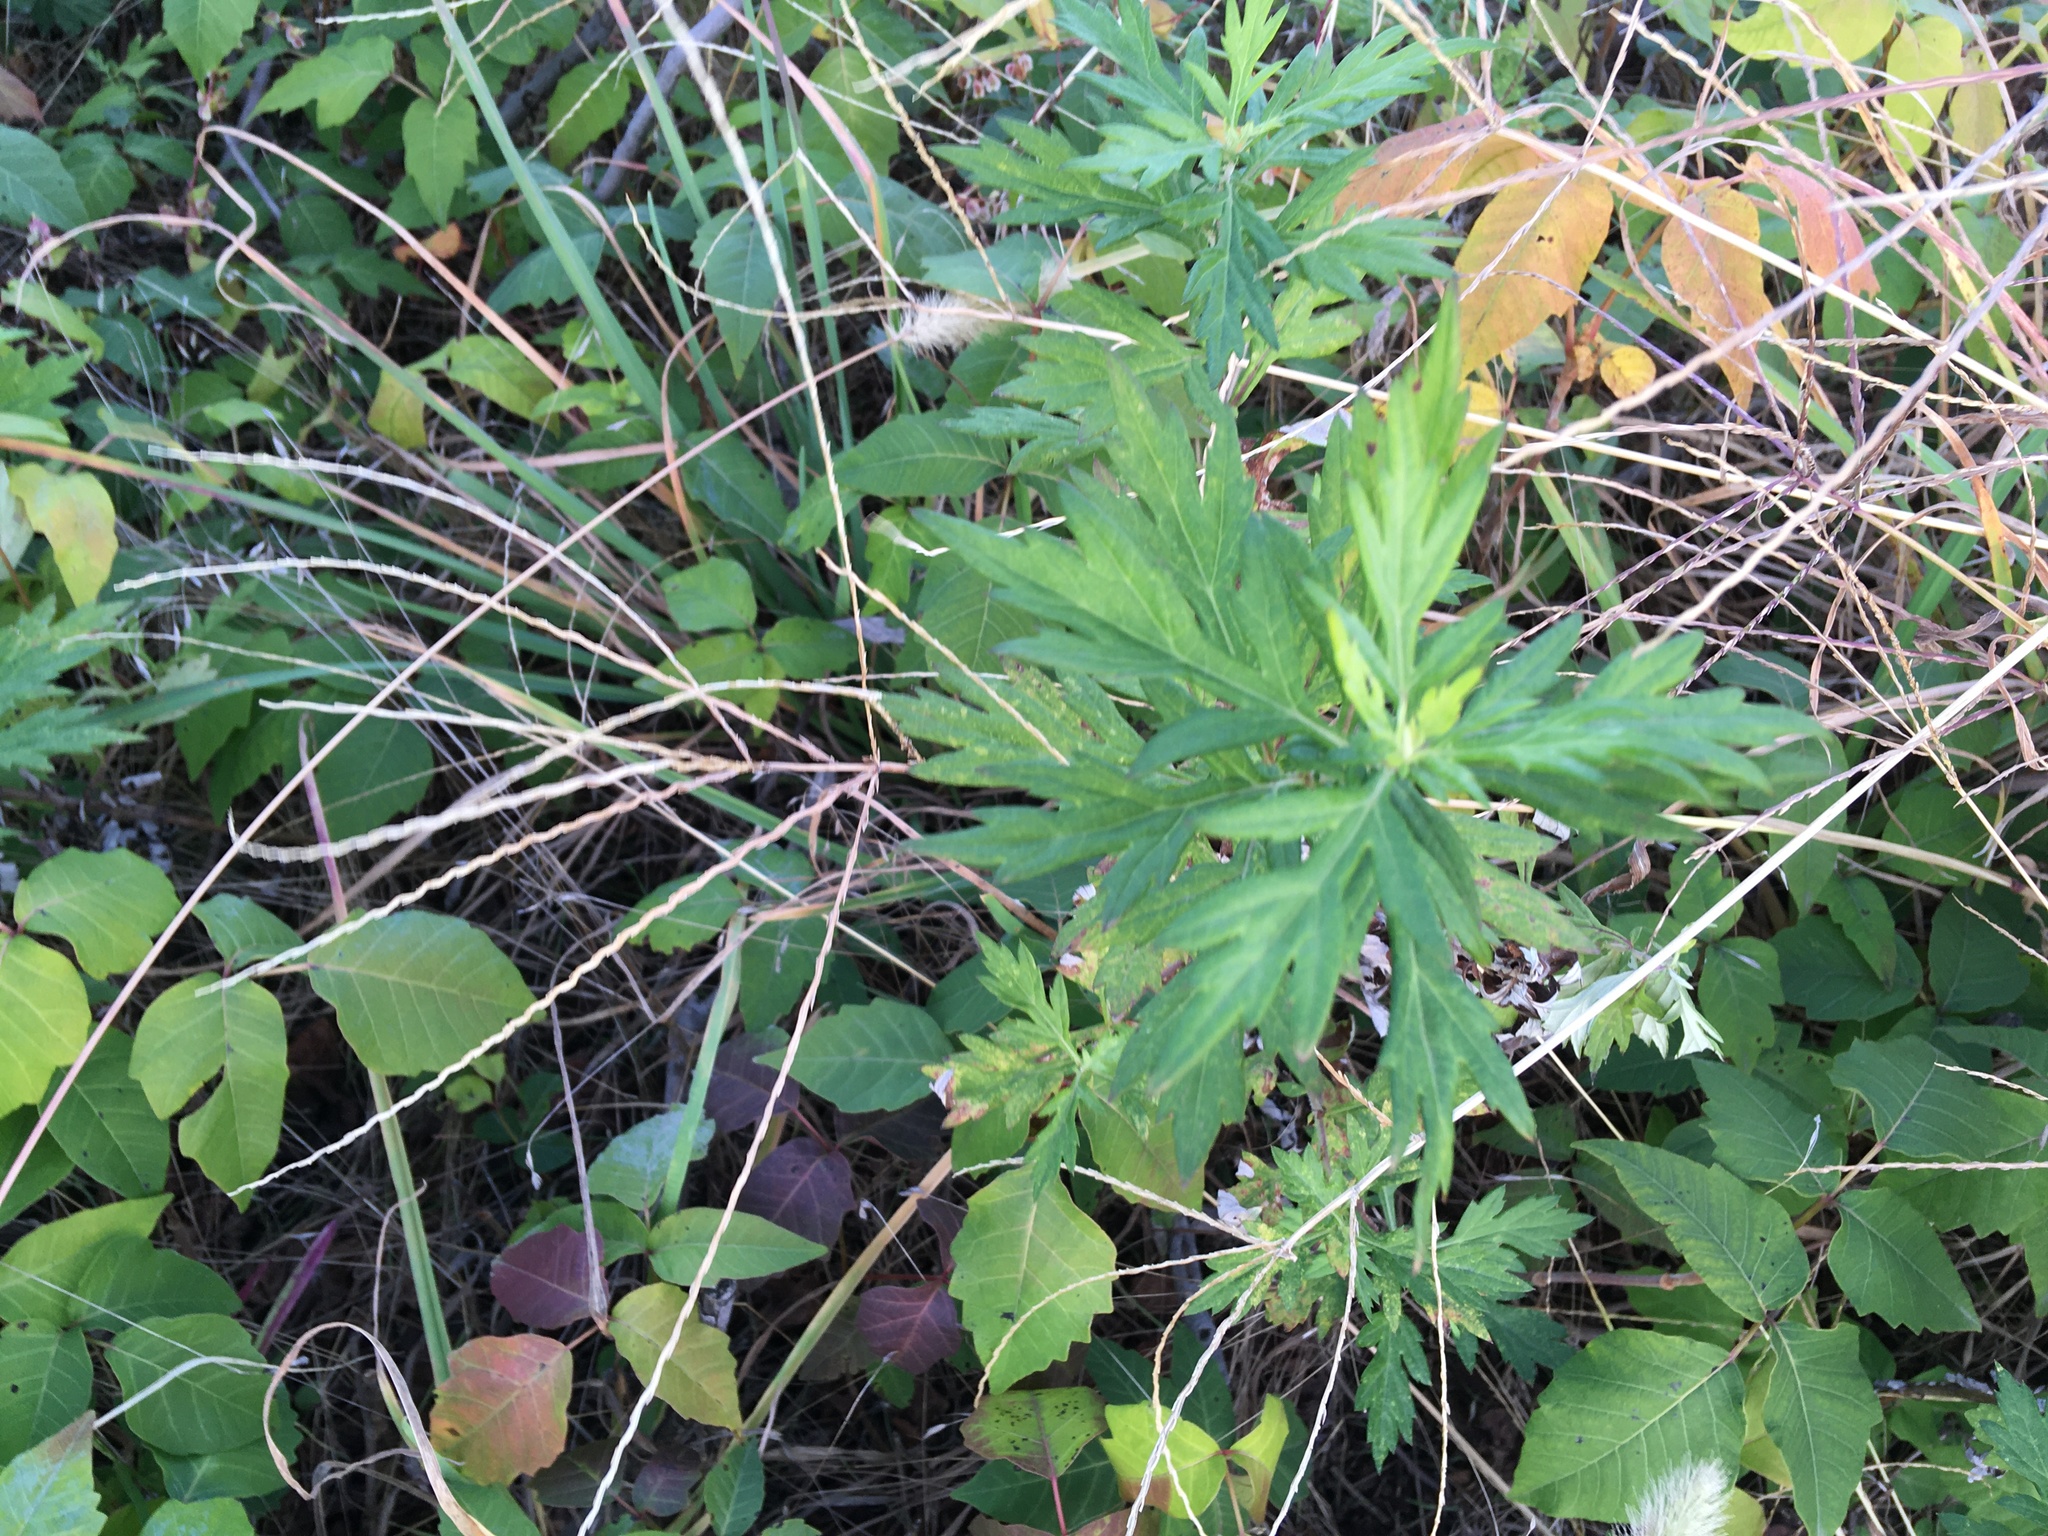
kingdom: Plantae
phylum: Tracheophyta
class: Magnoliopsida
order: Asterales
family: Asteraceae
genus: Artemisia
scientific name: Artemisia vulgaris
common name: Mugwort
